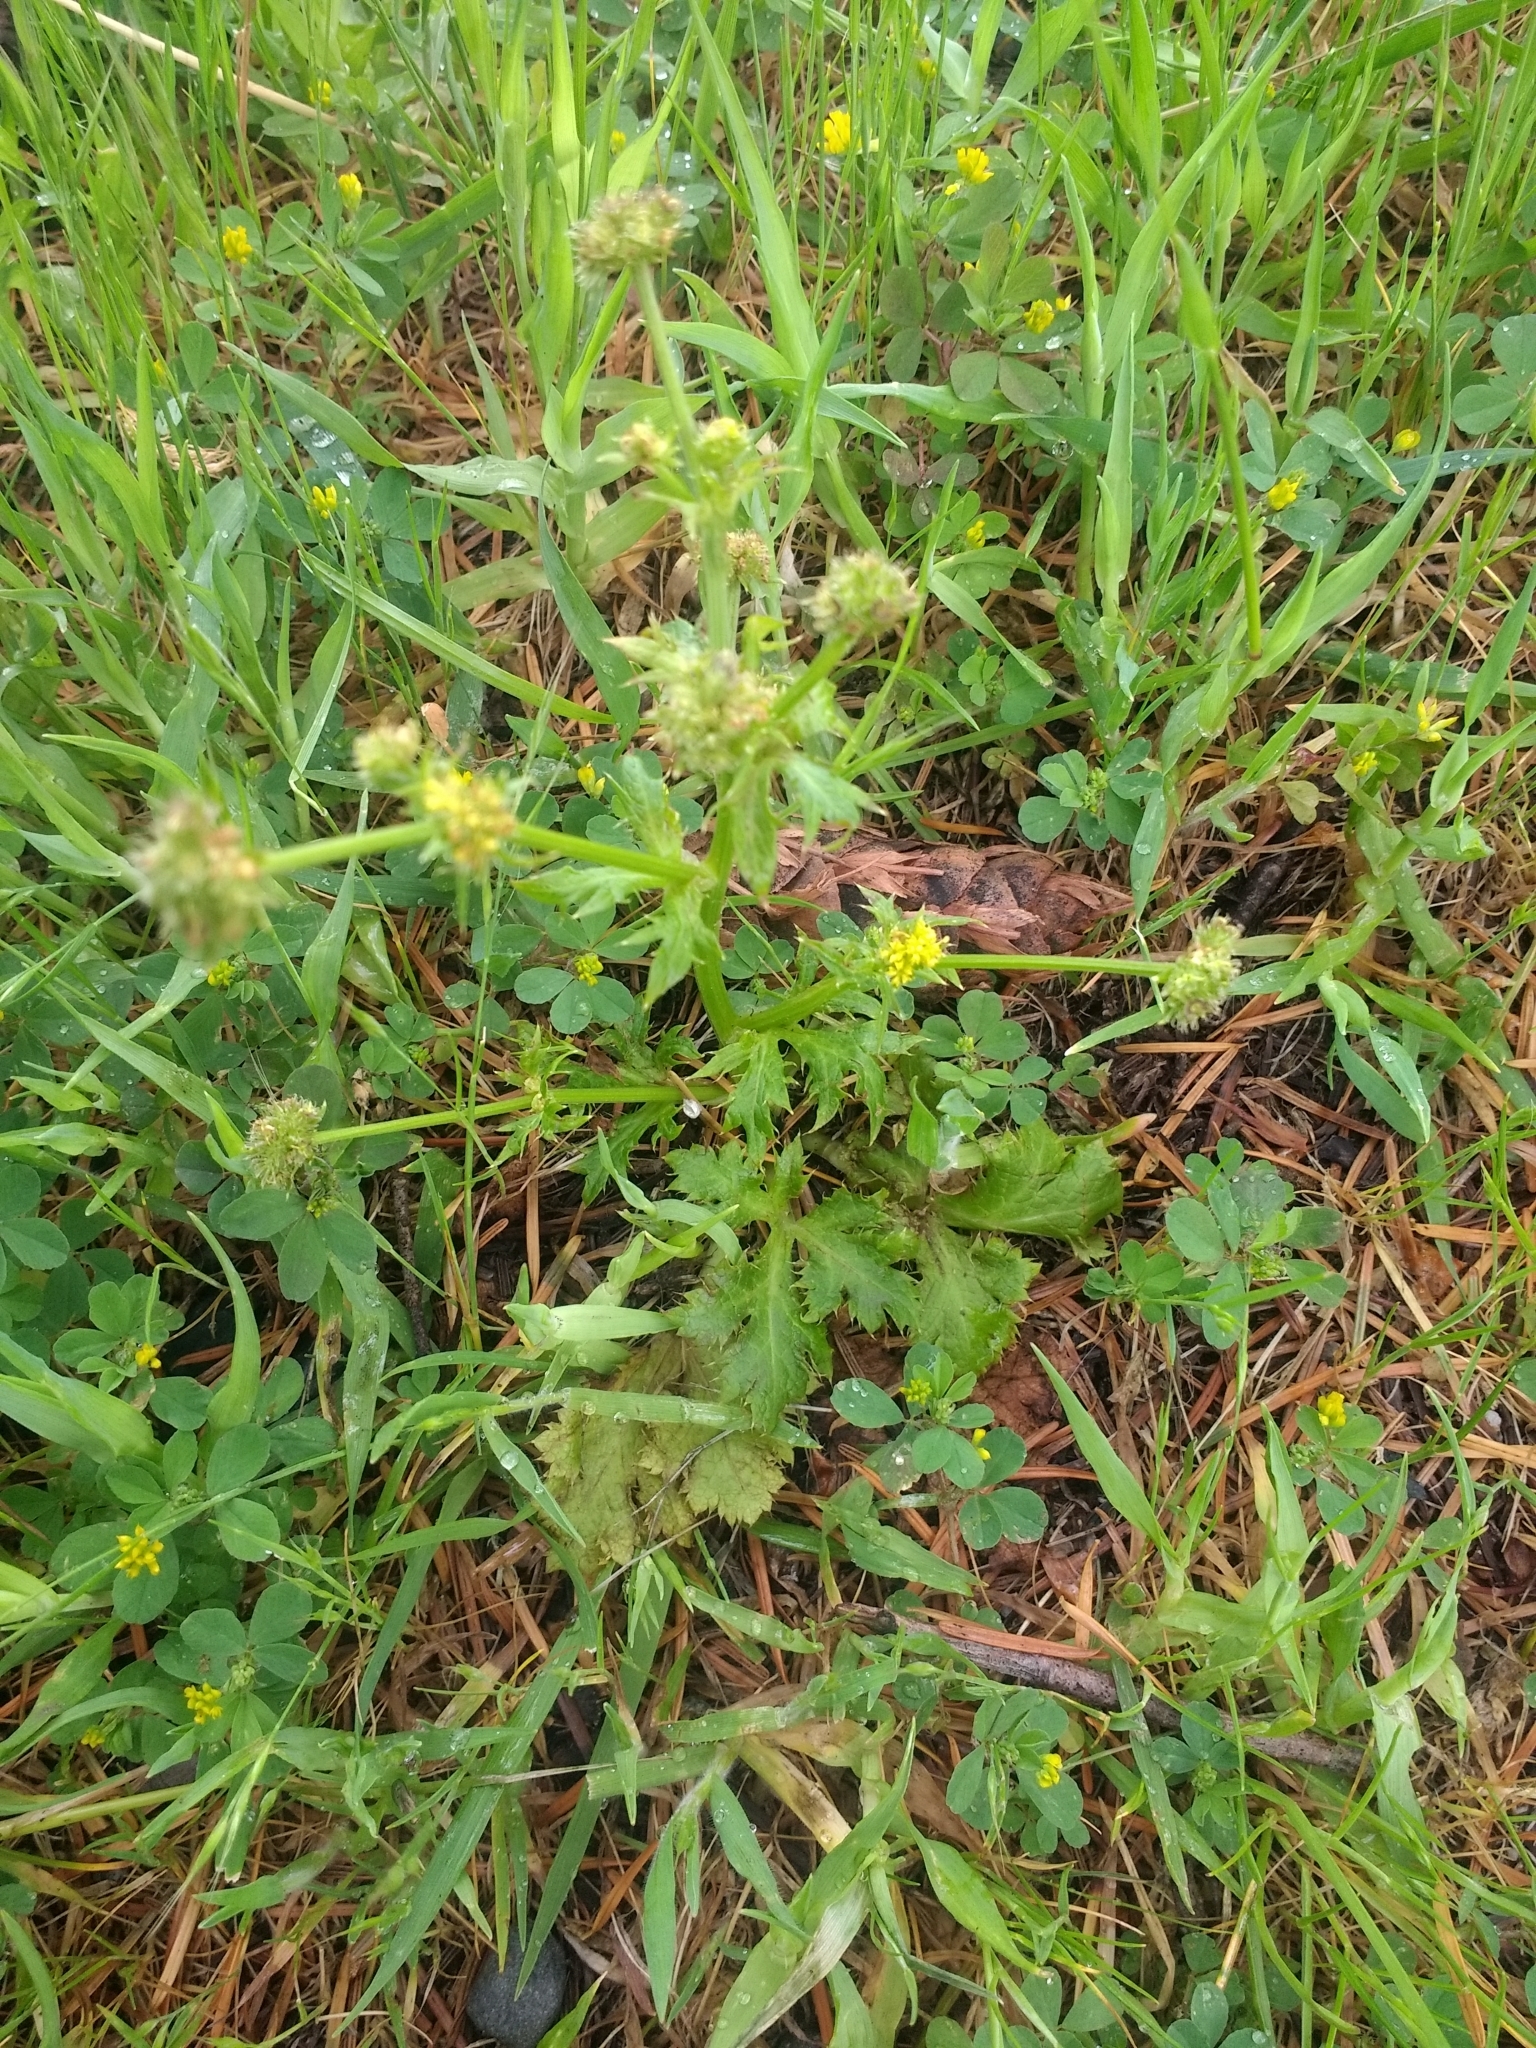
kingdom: Plantae
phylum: Tracheophyta
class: Magnoliopsida
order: Apiales
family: Apiaceae
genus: Sanicula
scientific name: Sanicula crassicaulis
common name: Western snakeroot
